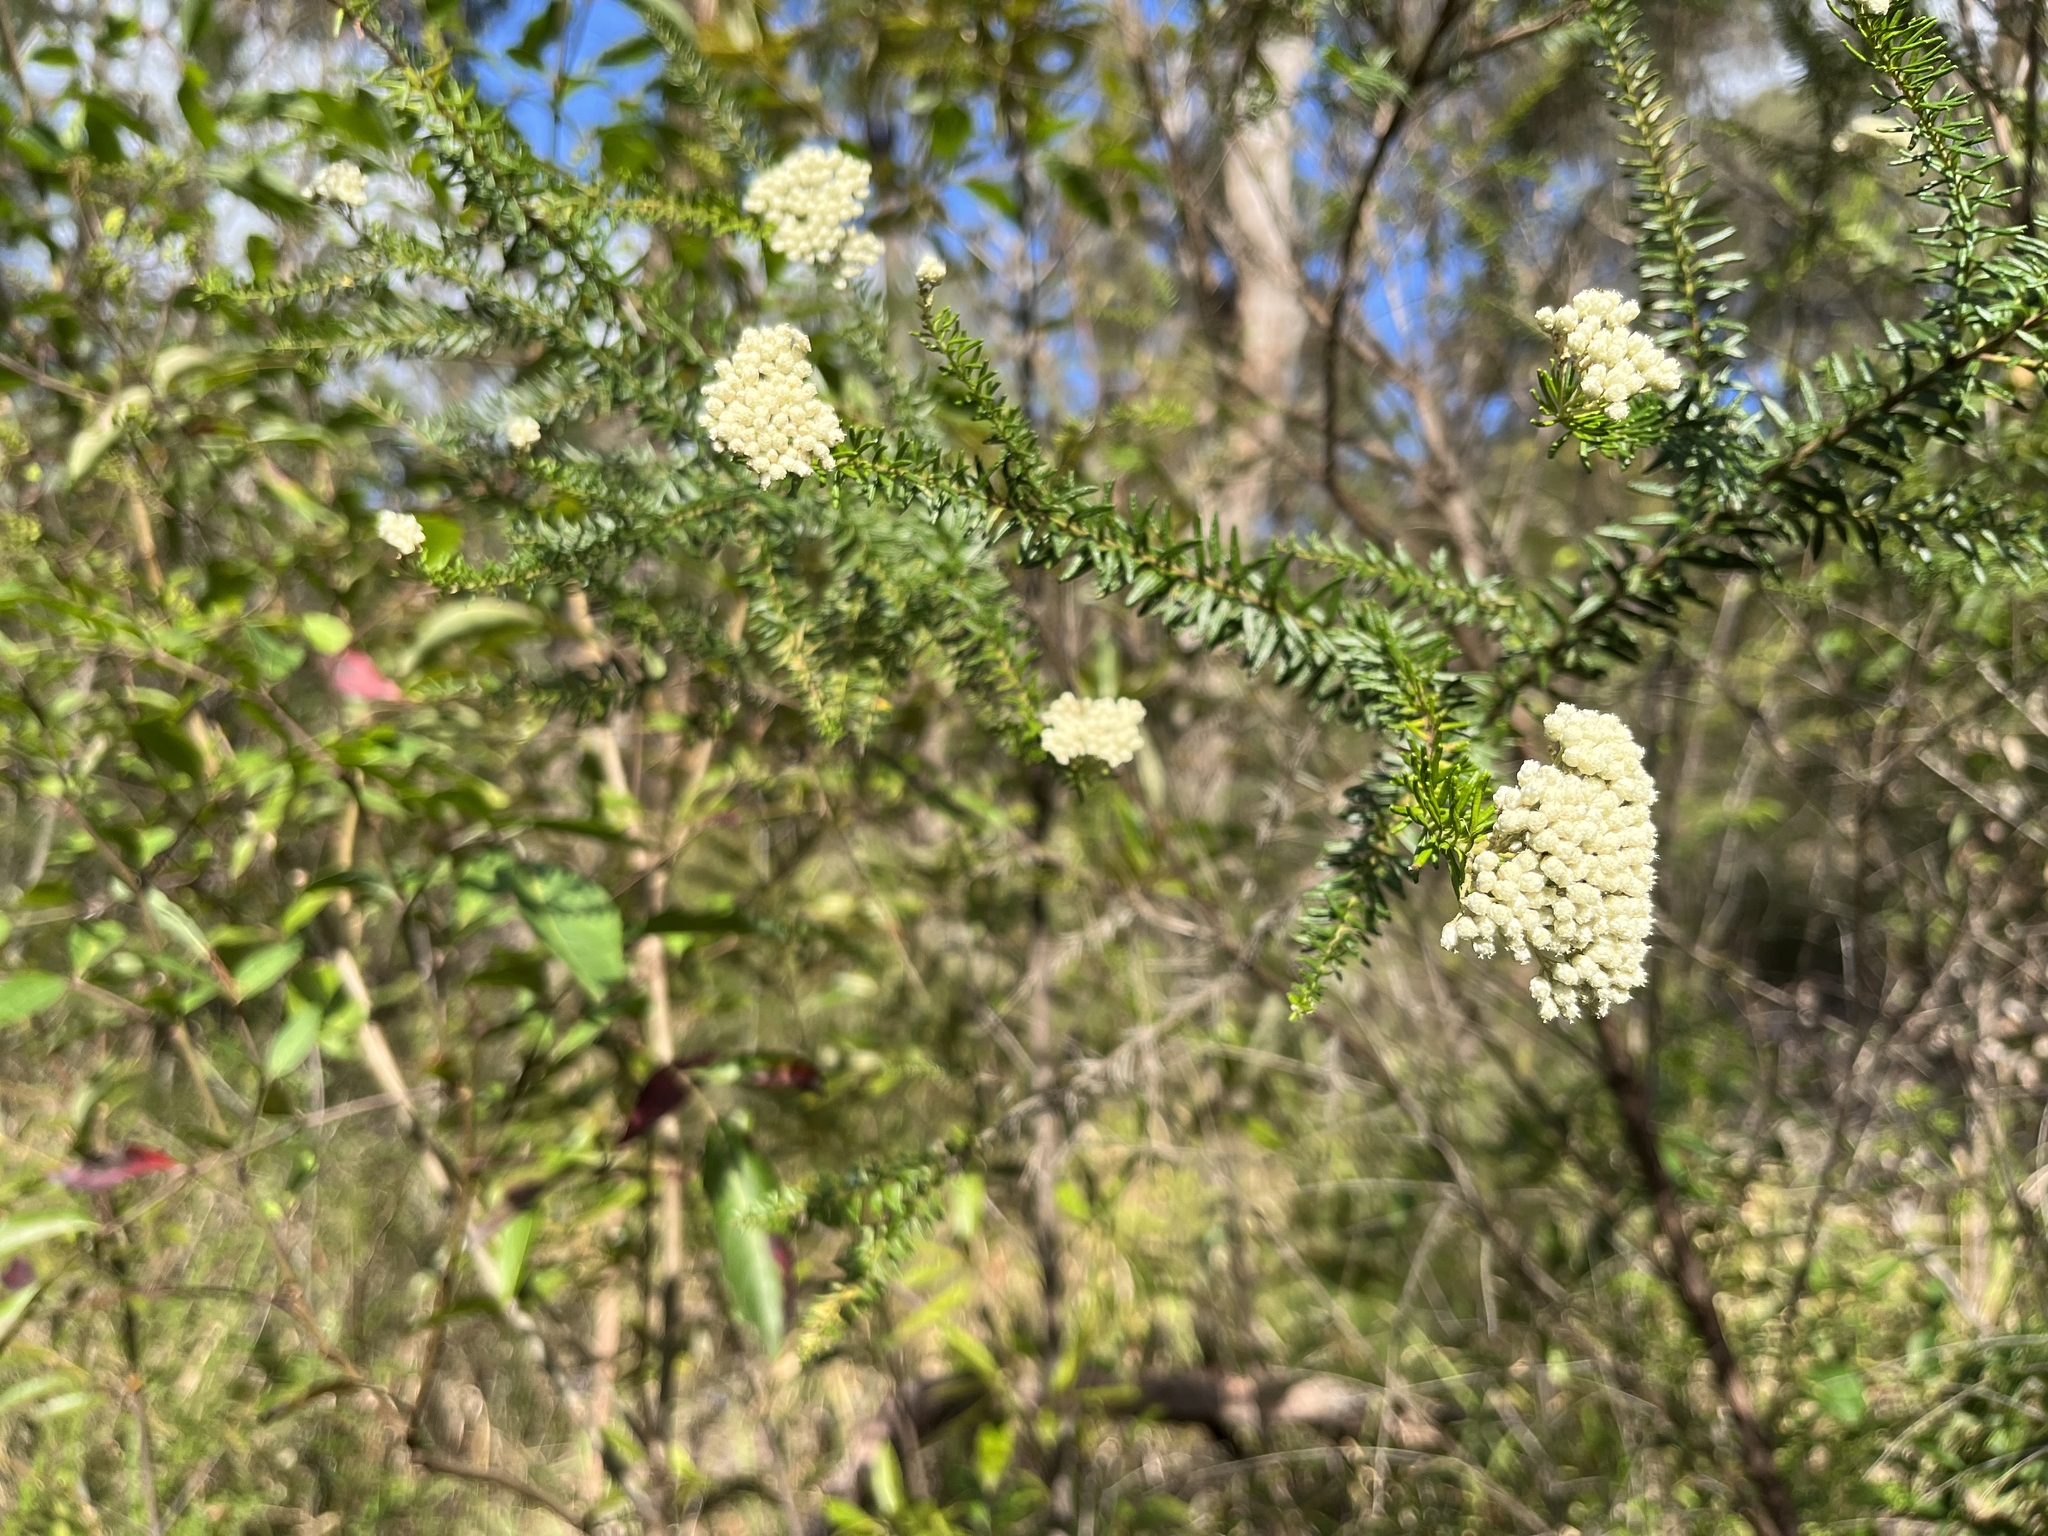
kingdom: Plantae
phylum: Tracheophyta
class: Magnoliopsida
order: Asterales
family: Asteraceae
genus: Ozothamnus
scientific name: Ozothamnus diosmifolius
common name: White-dogwood
